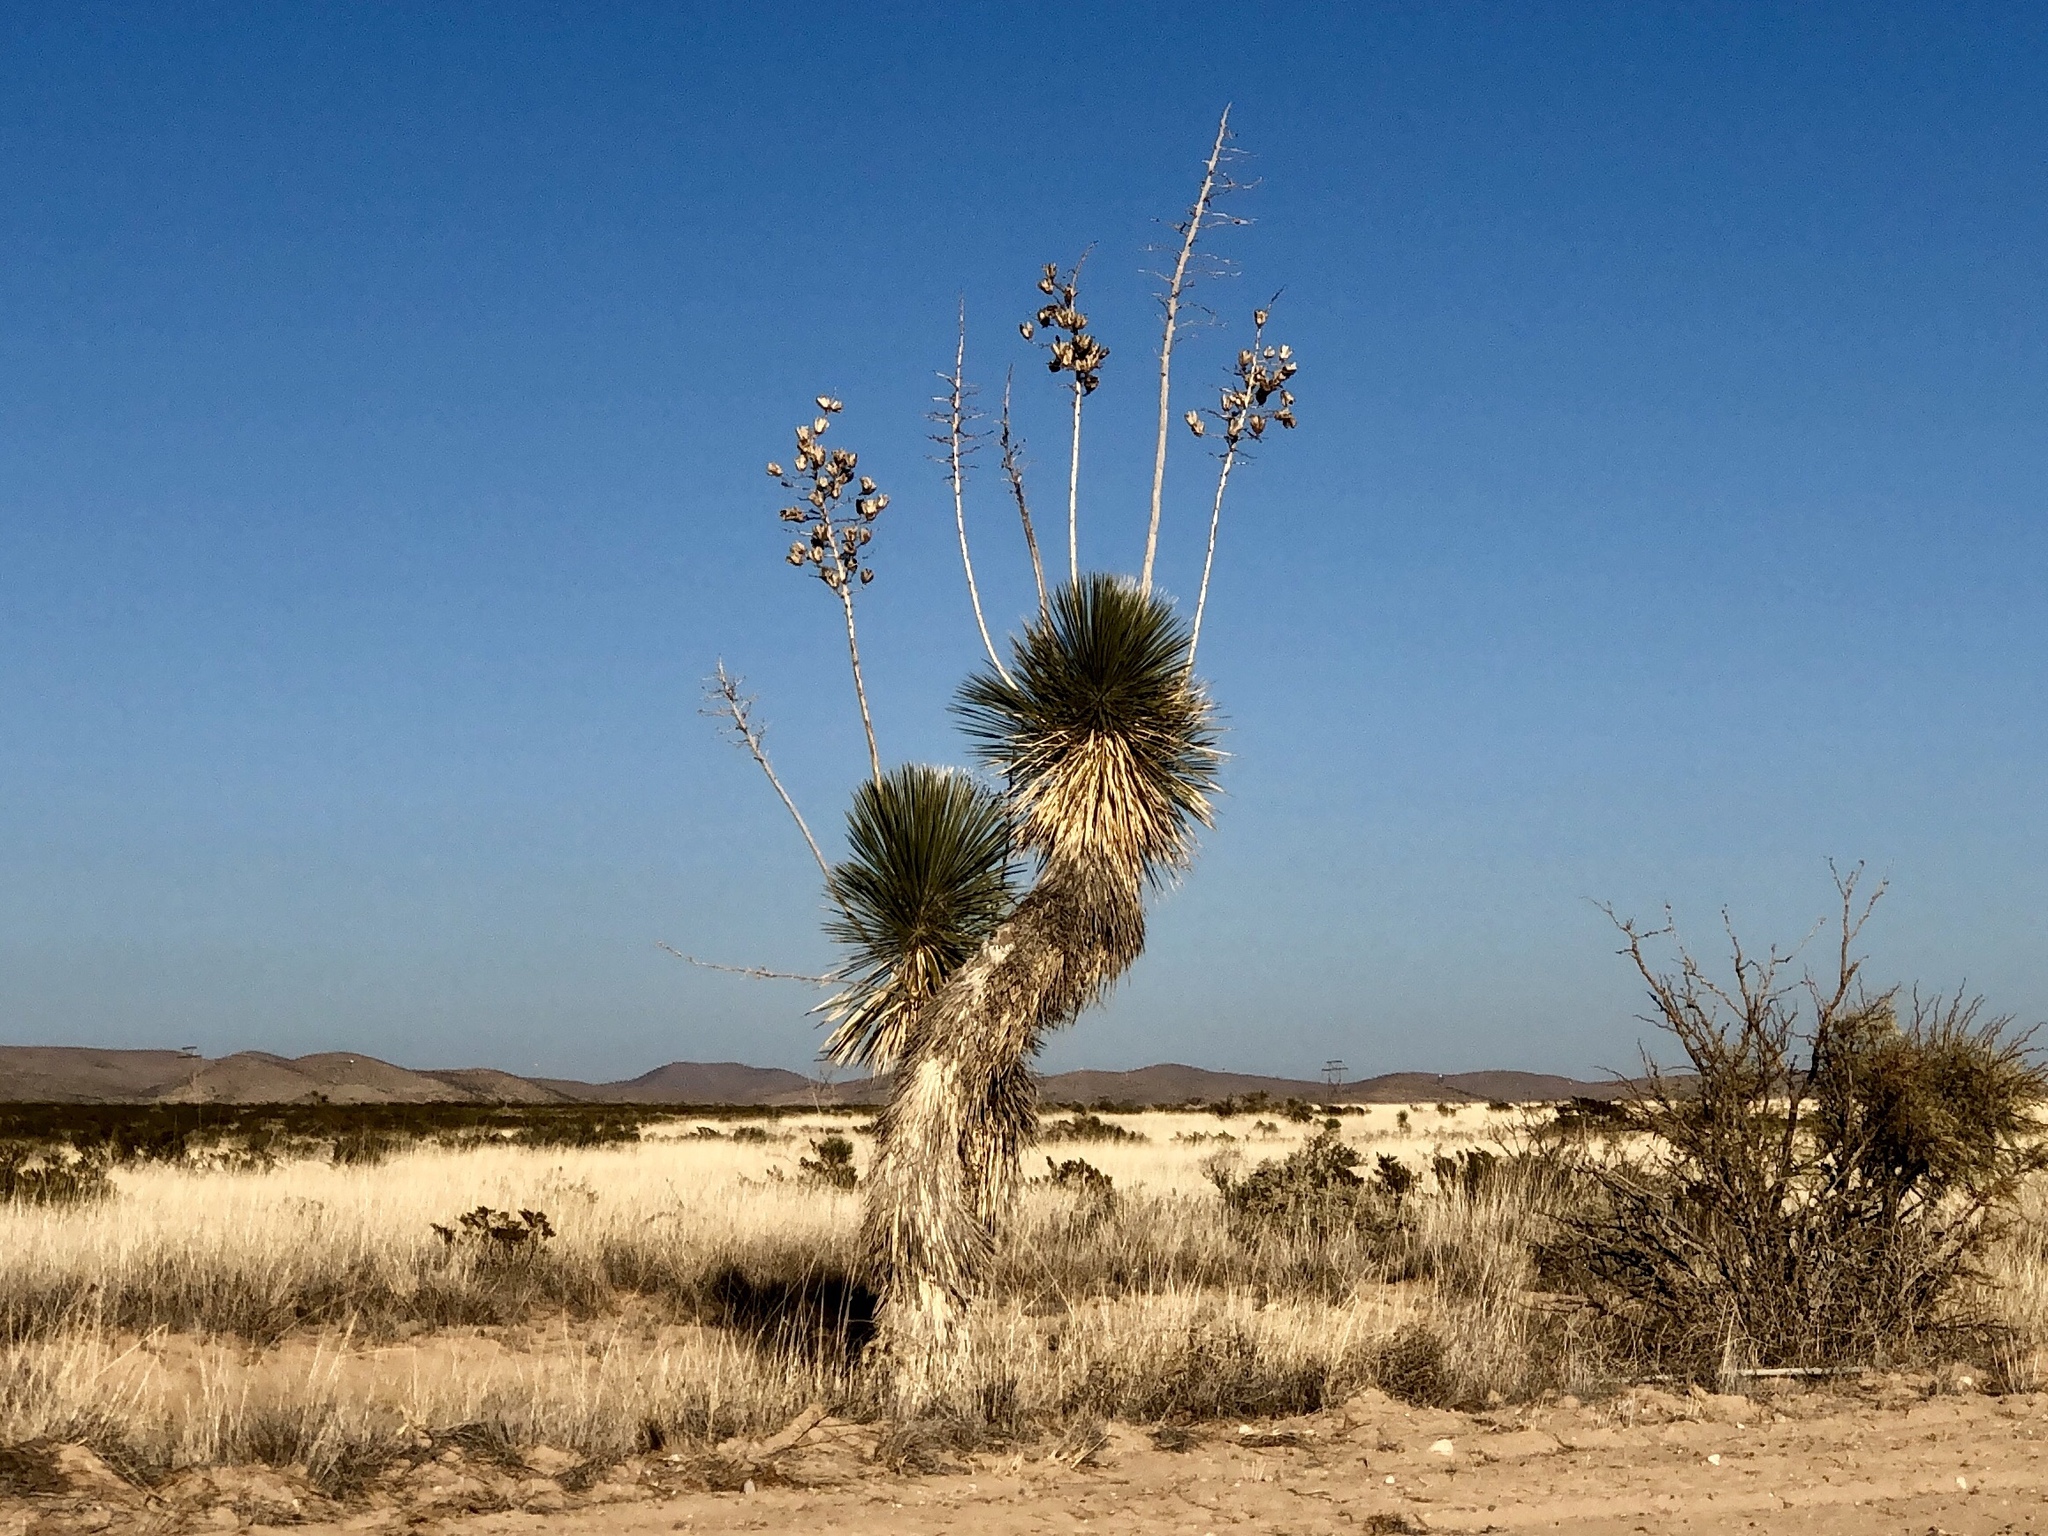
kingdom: Plantae
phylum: Tracheophyta
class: Liliopsida
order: Asparagales
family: Asparagaceae
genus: Yucca
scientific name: Yucca elata
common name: Palmella
